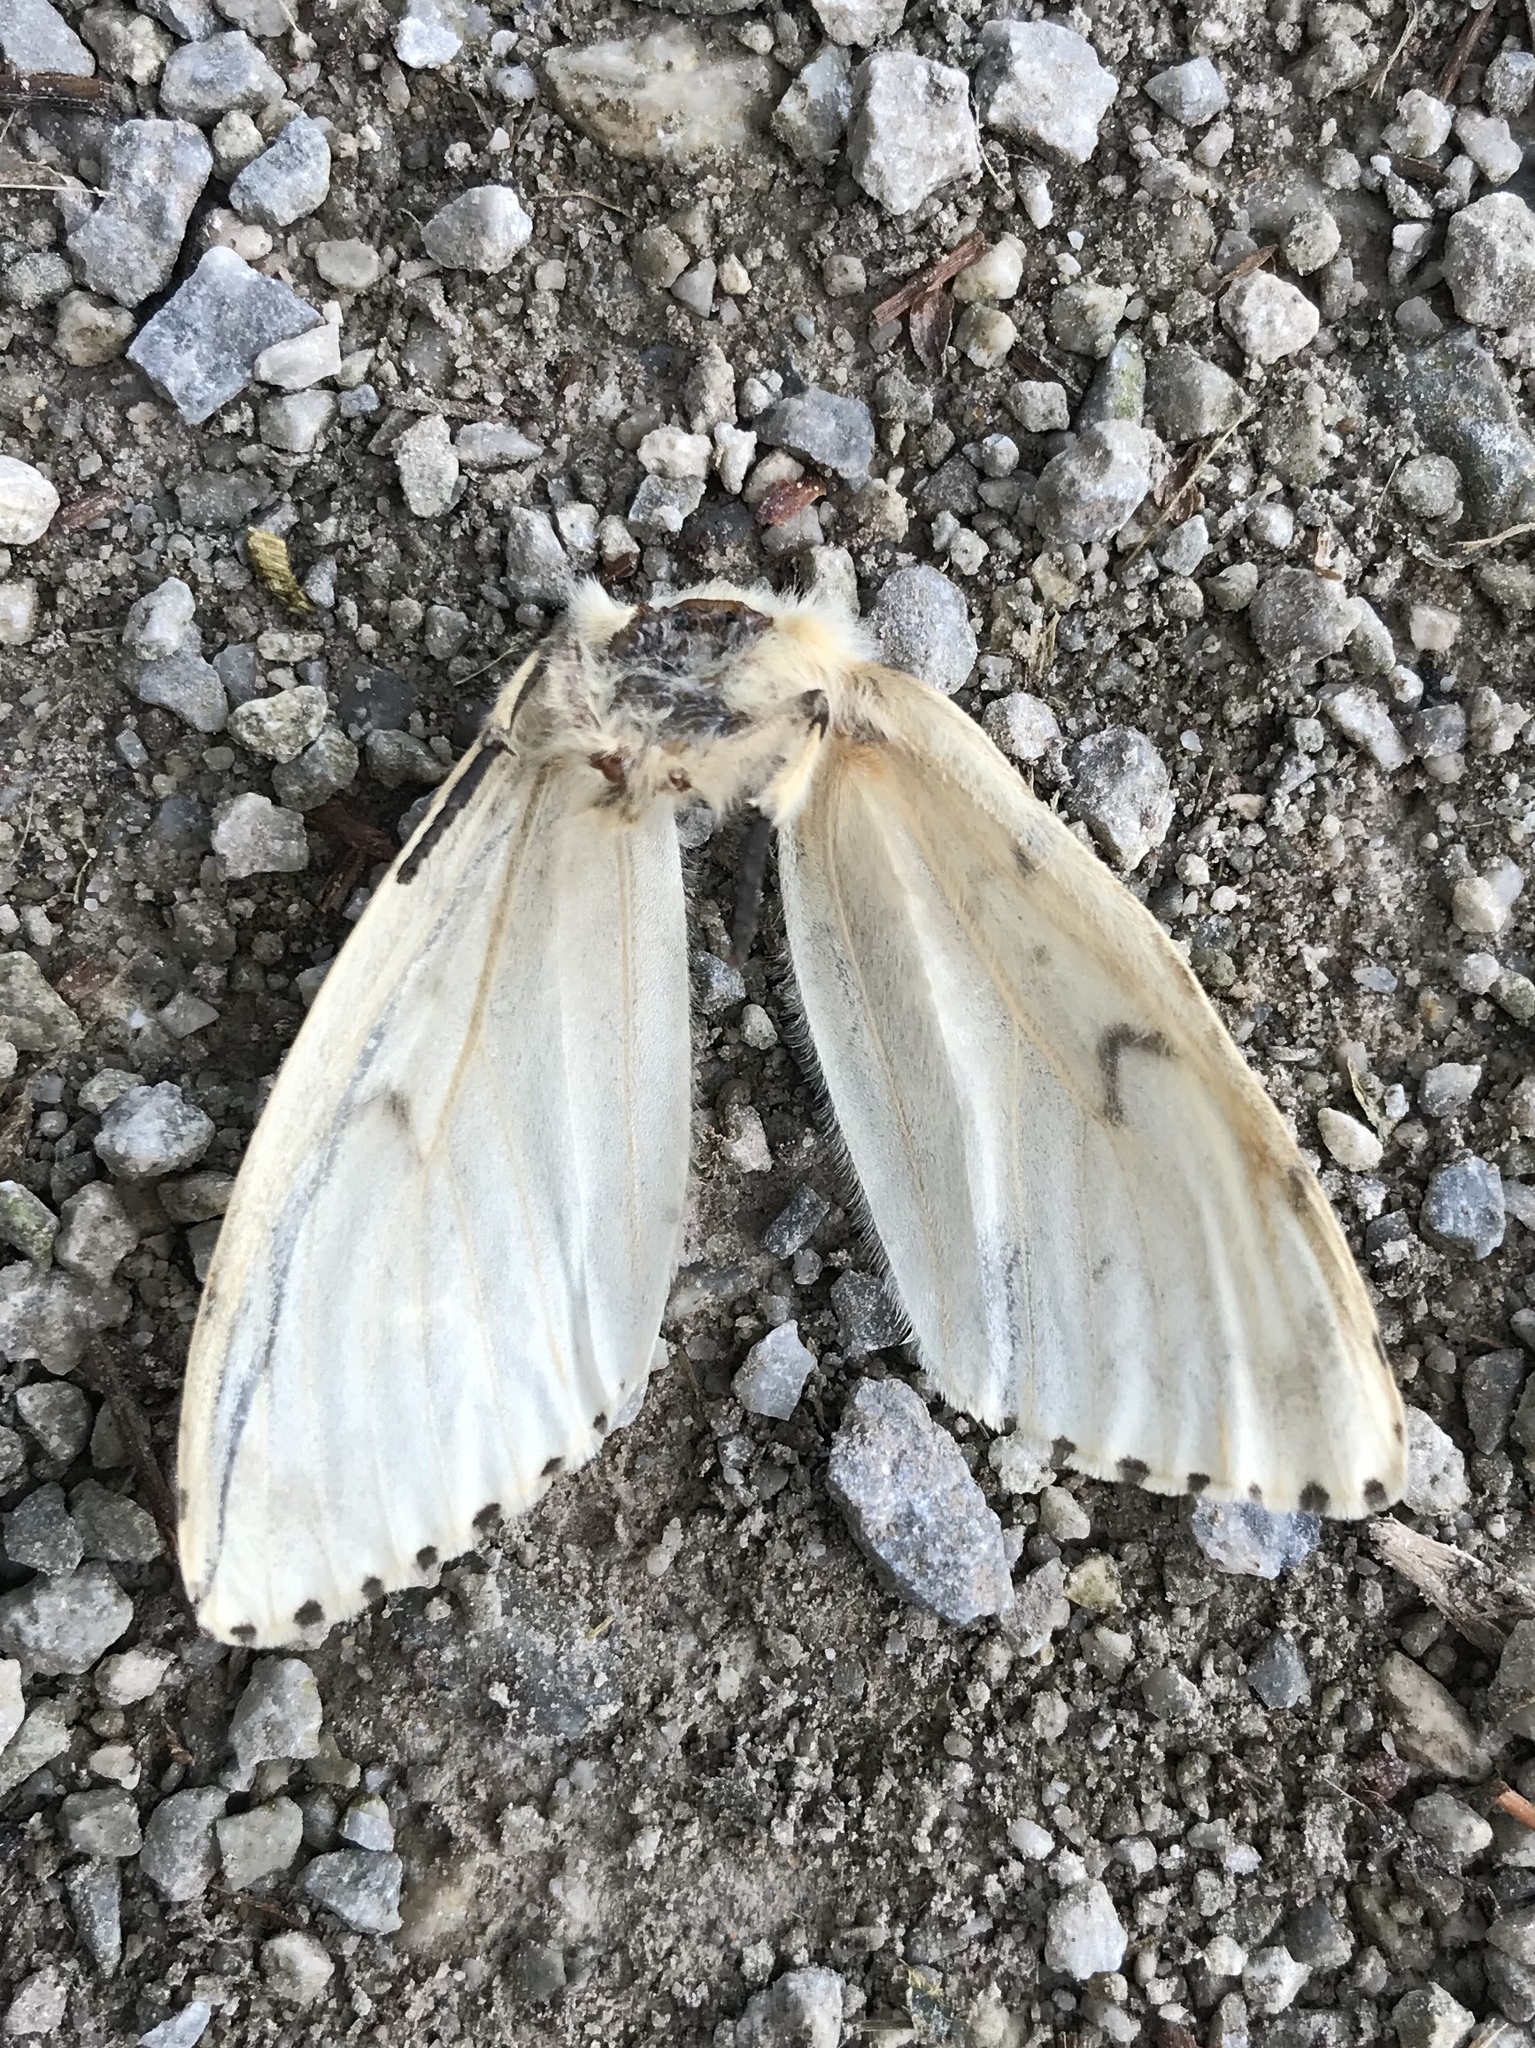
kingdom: Animalia
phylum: Arthropoda
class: Insecta
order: Lepidoptera
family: Erebidae
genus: Lymantria
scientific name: Lymantria dispar
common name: Gypsy moth
